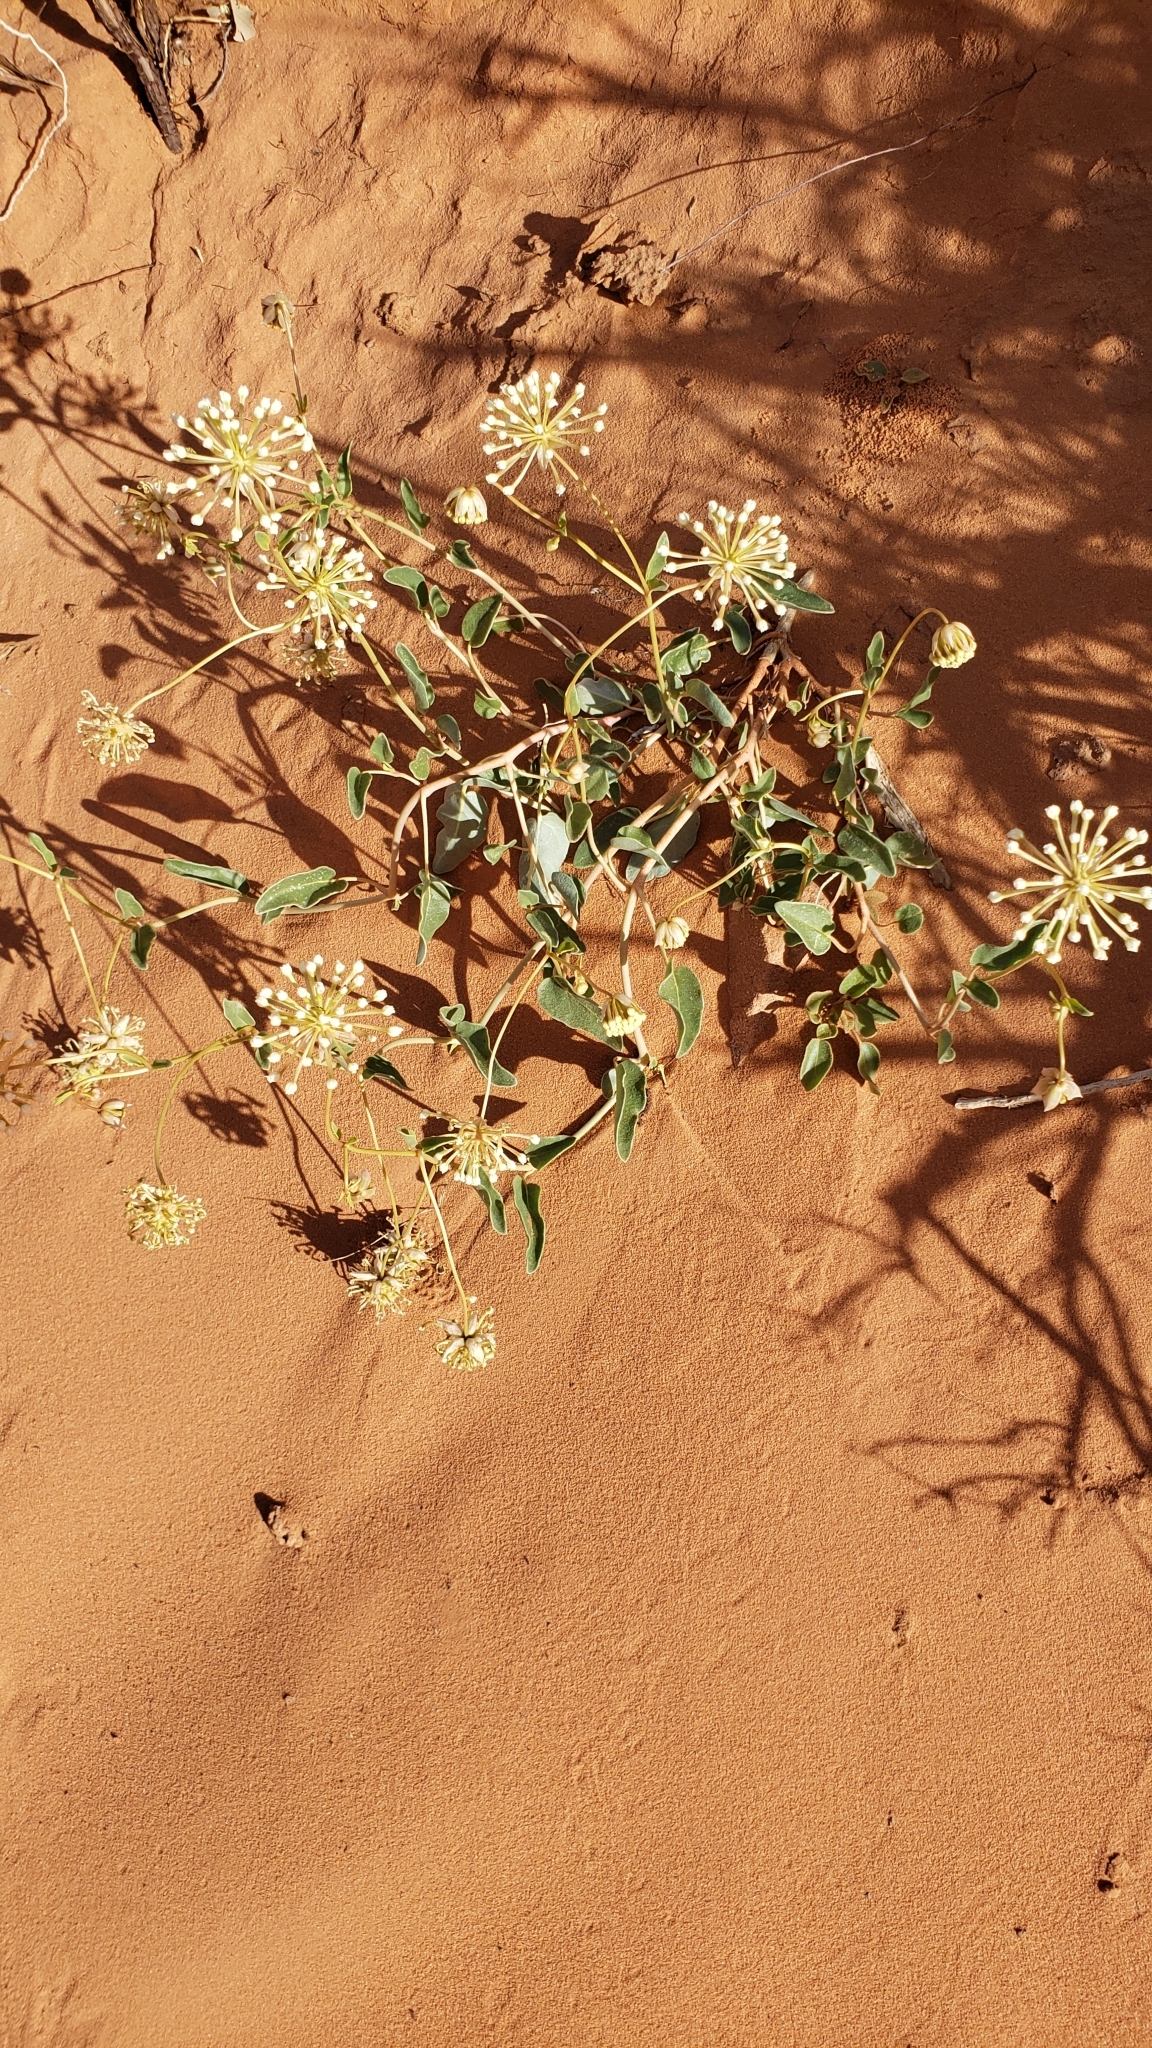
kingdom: Plantae
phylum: Tracheophyta
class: Magnoliopsida
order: Caryophyllales
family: Nyctaginaceae
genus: Abronia
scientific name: Abronia elliptica
